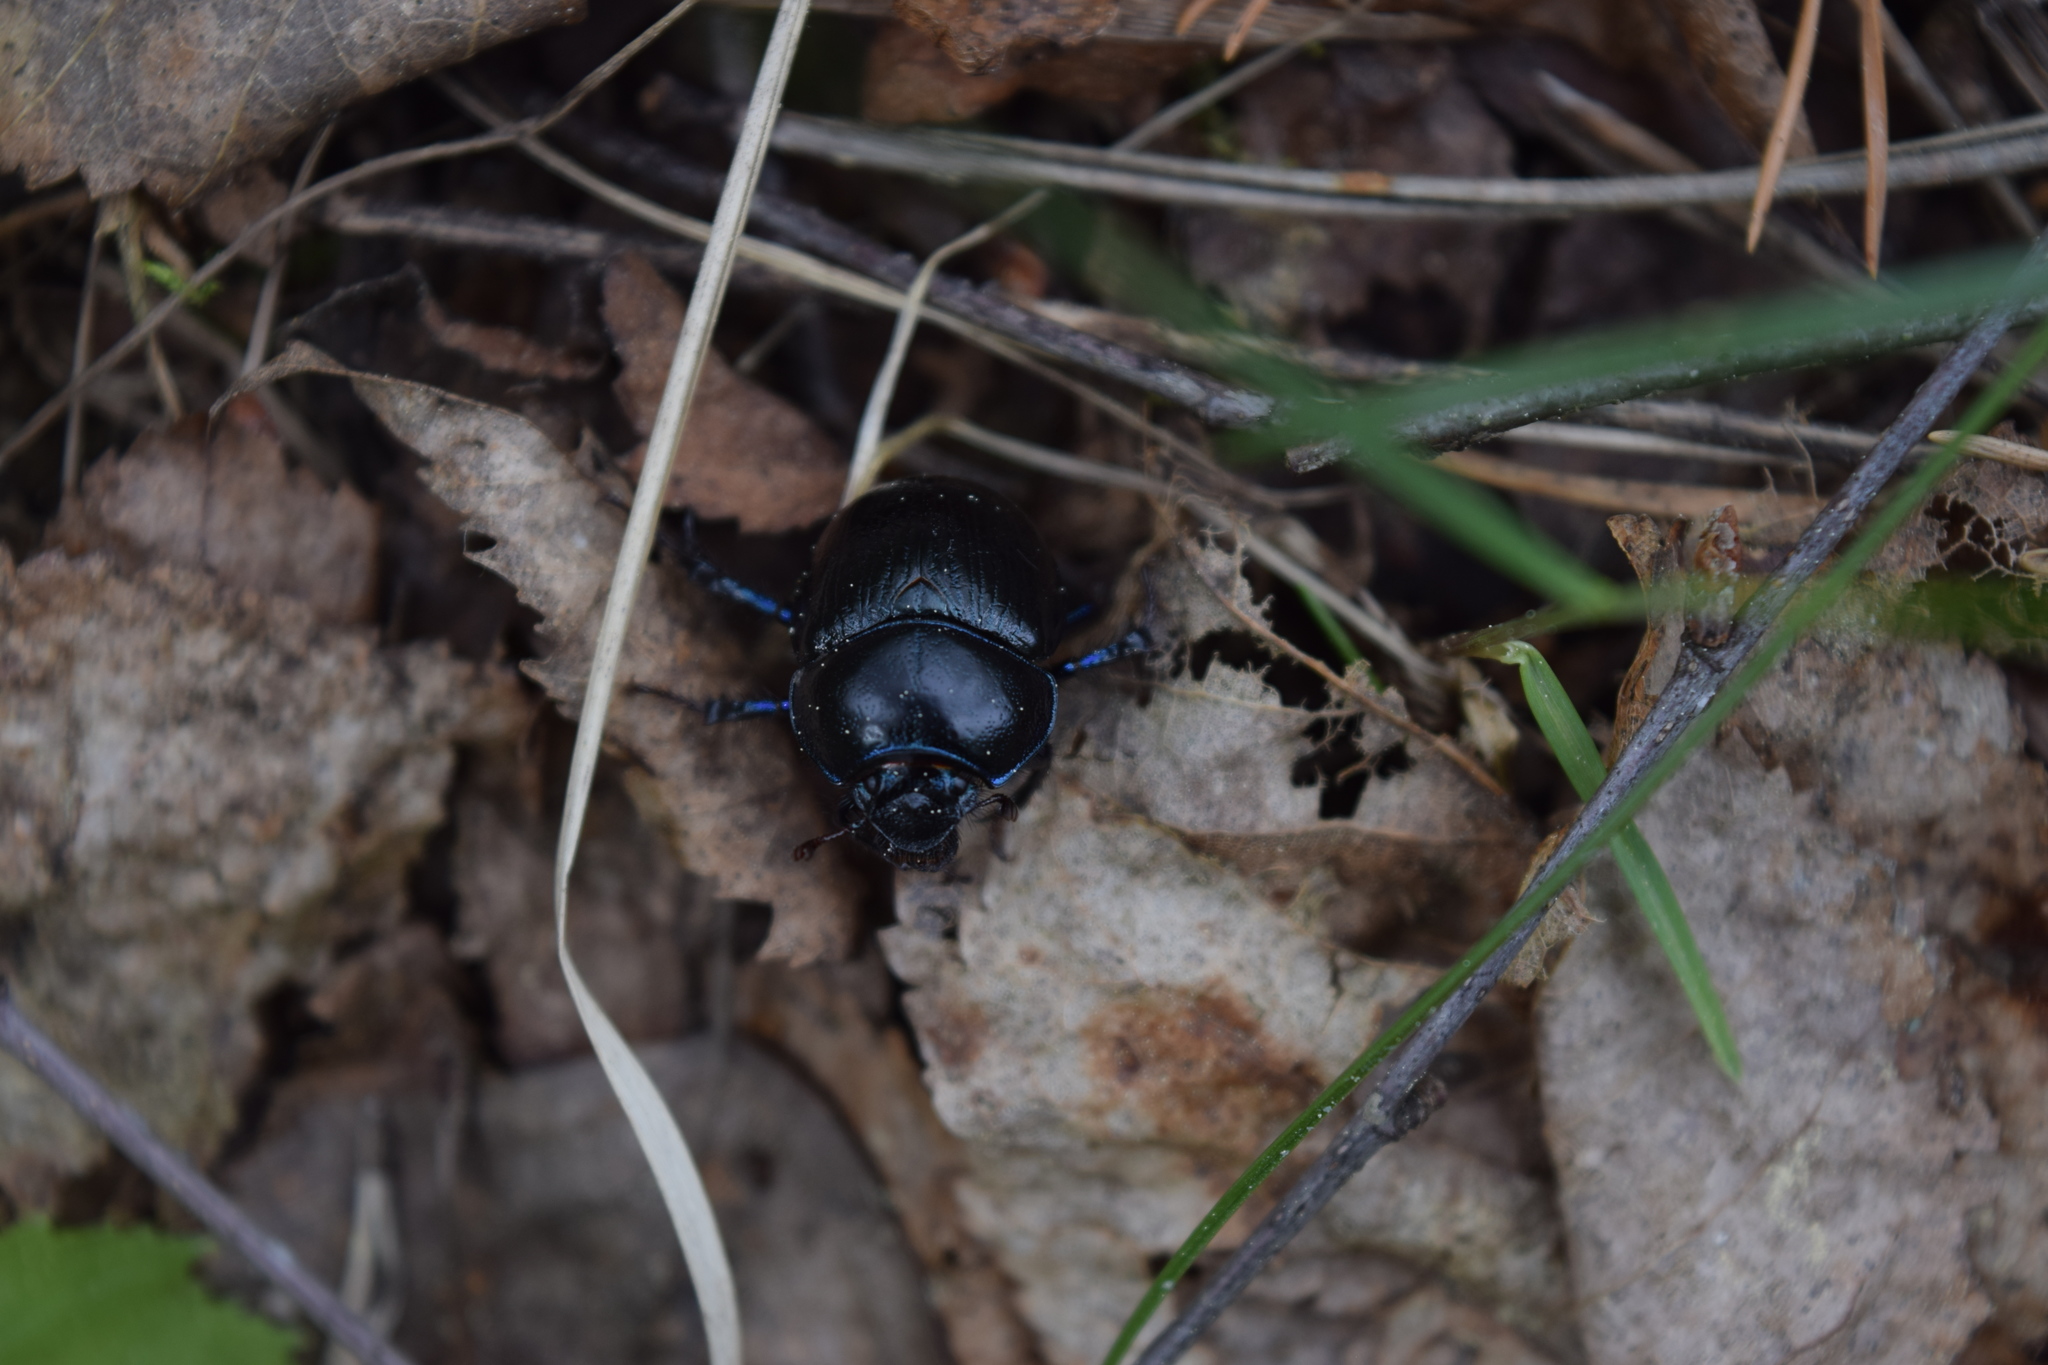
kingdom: Animalia
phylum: Arthropoda
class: Insecta
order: Coleoptera
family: Geotrupidae
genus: Anoplotrupes
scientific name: Anoplotrupes stercorosus
